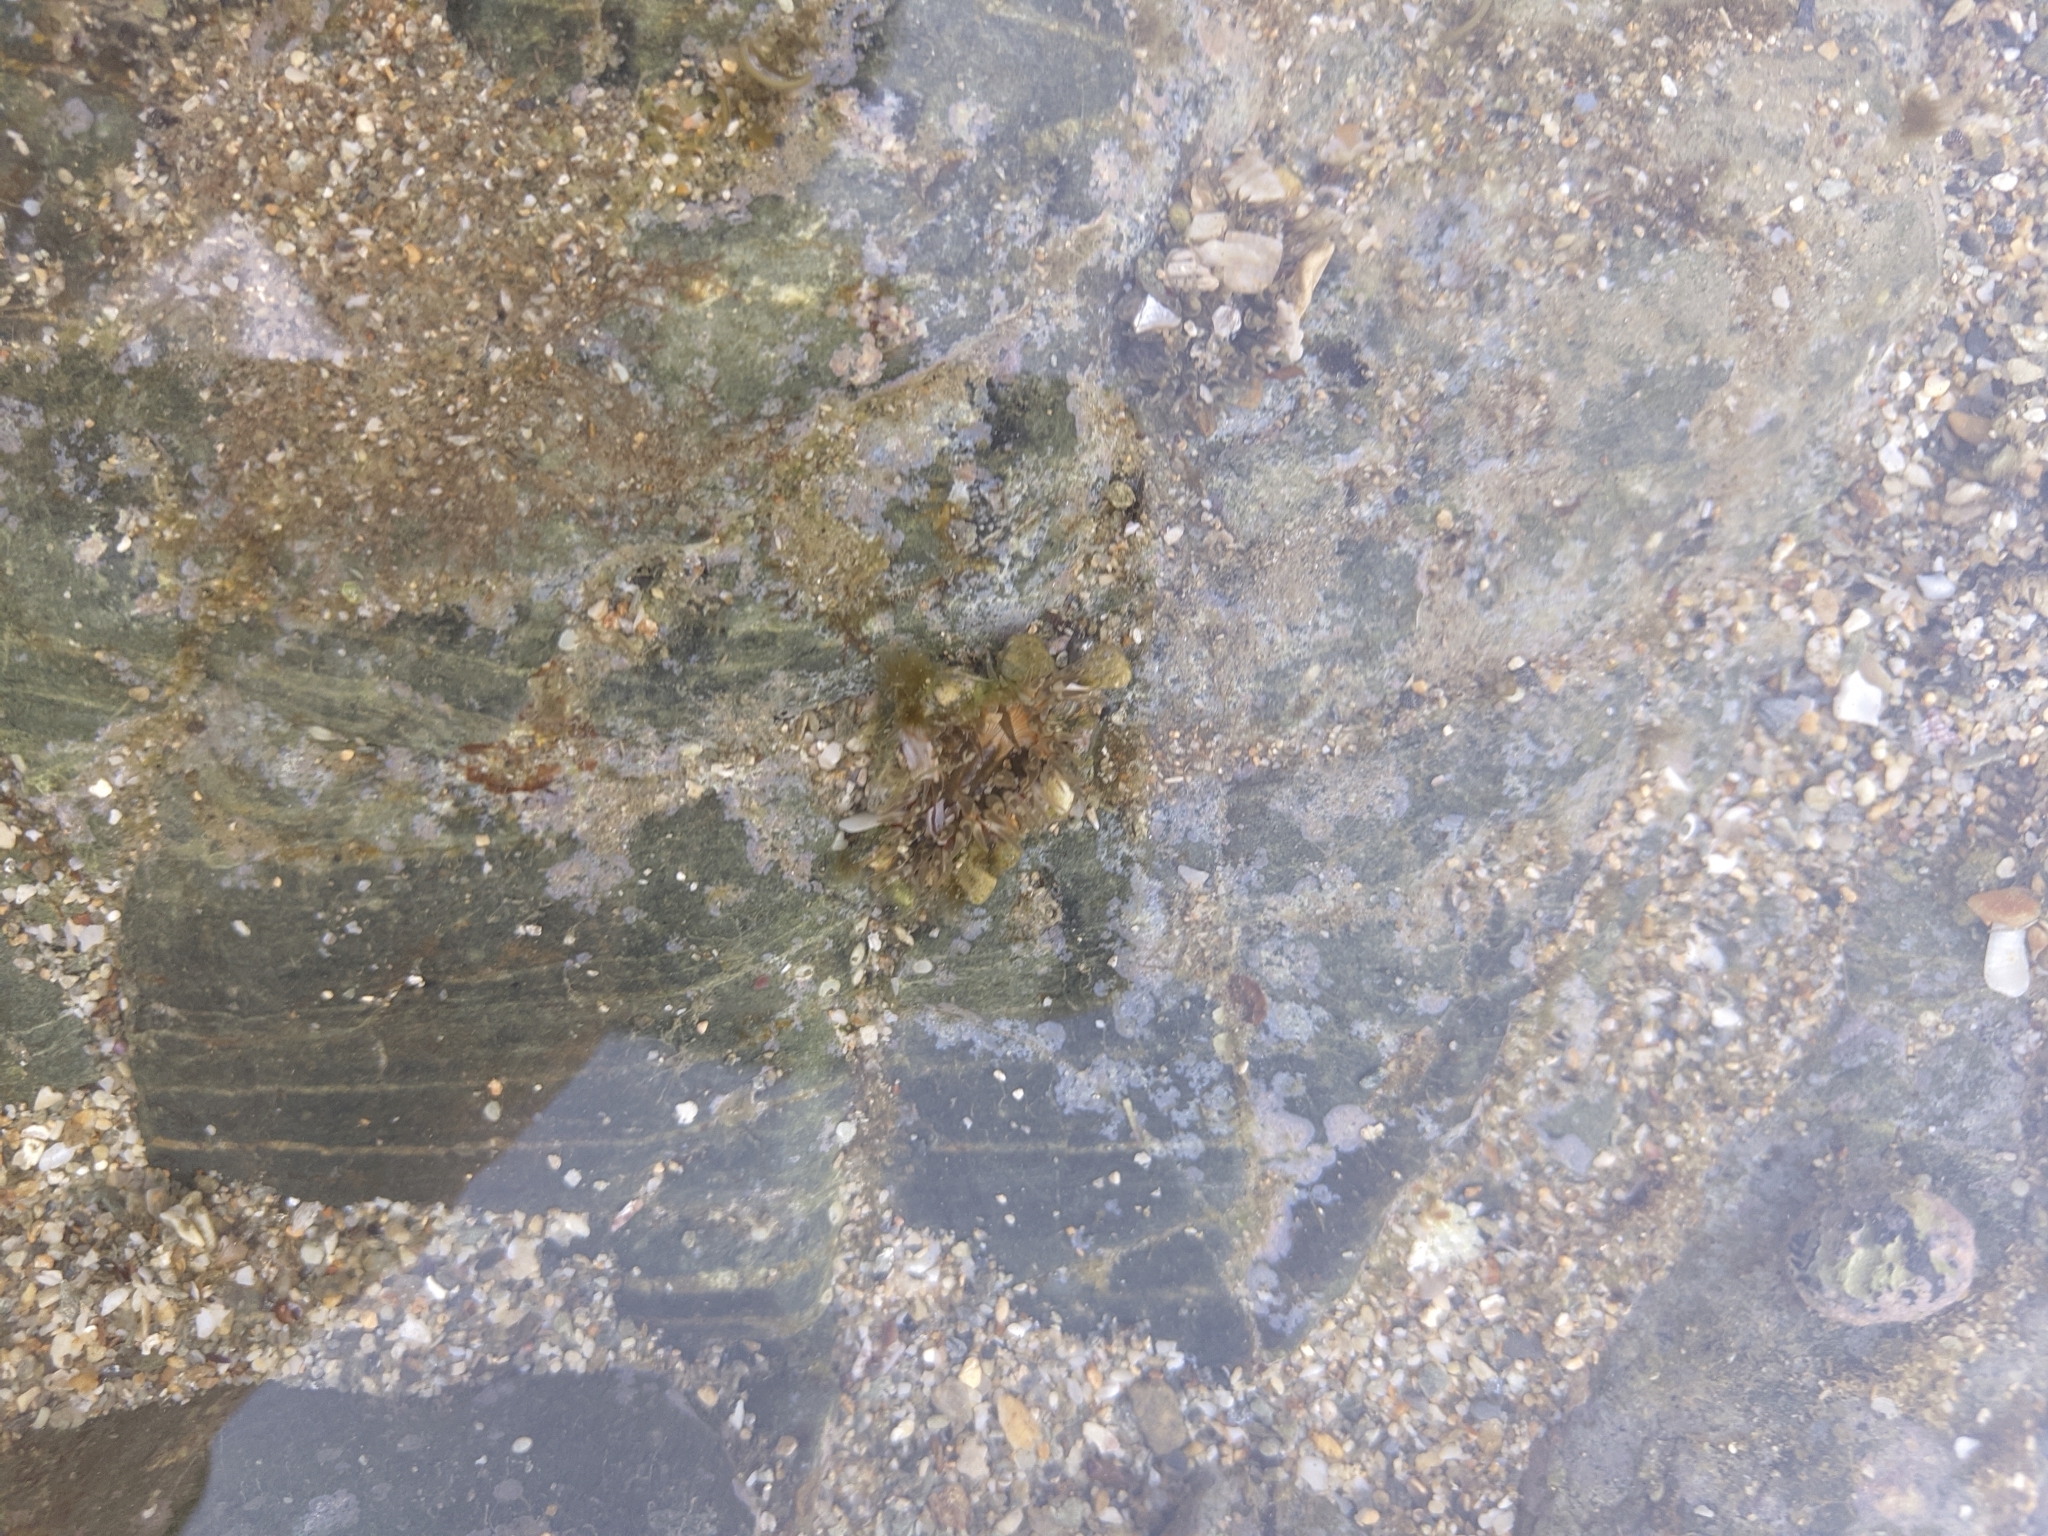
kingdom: Animalia
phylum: Cnidaria
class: Anthozoa
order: Actiniaria
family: Actiniidae
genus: Bunodosoma
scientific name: Bunodosoma granuliferum
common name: Red warty anemone
